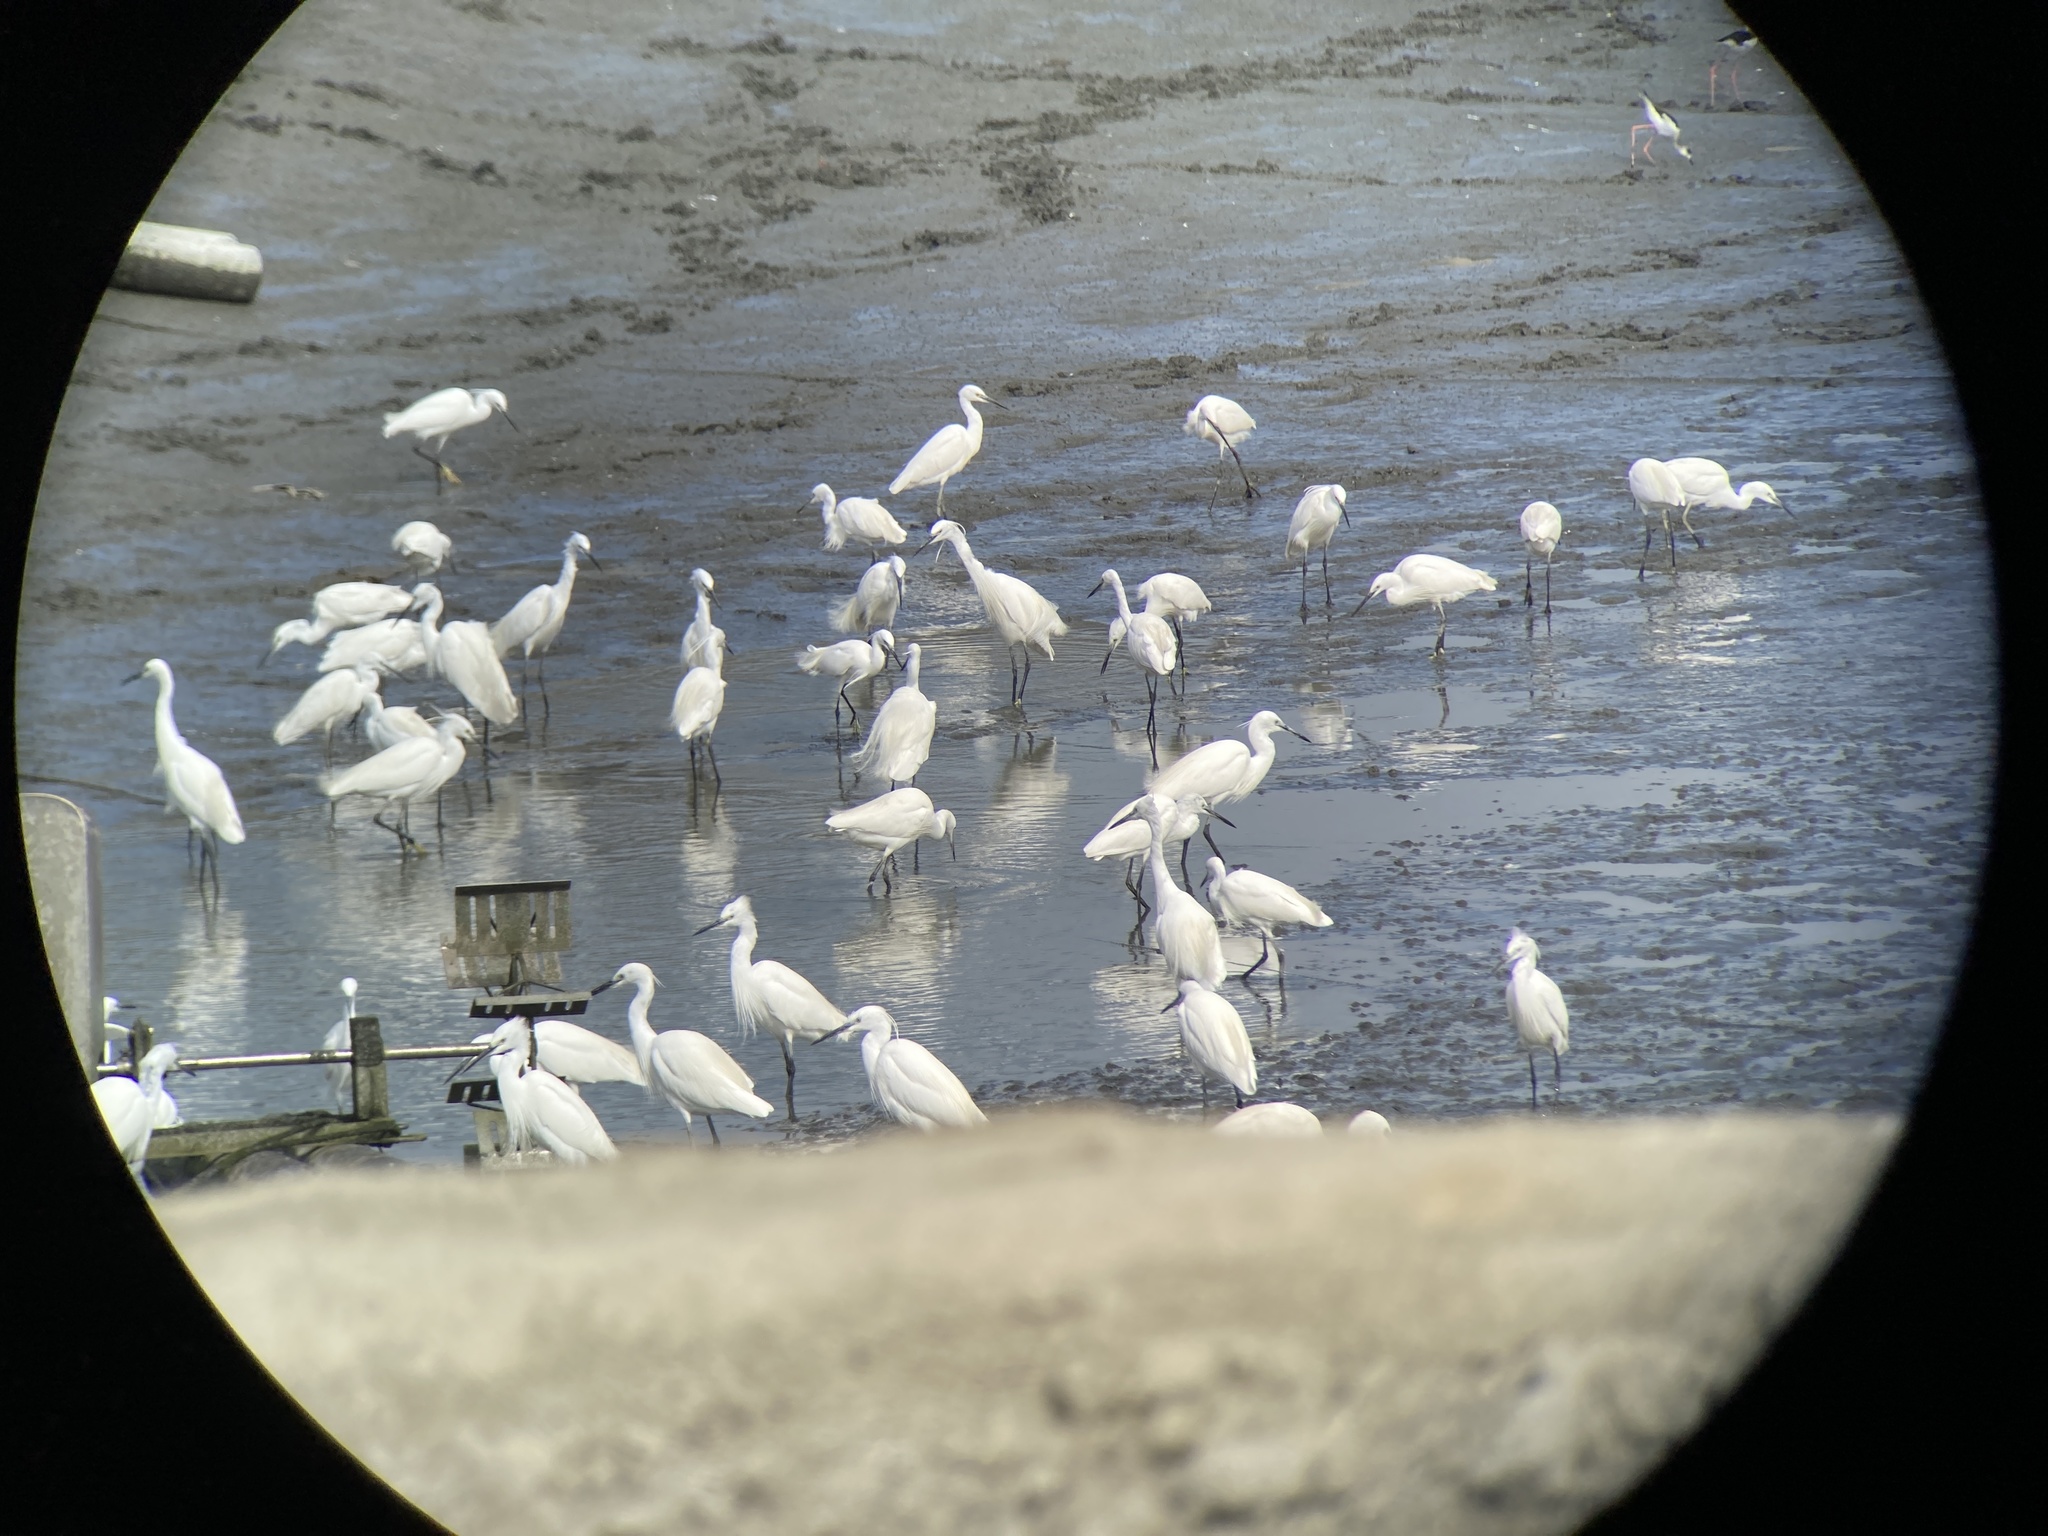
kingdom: Animalia
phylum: Chordata
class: Aves
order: Pelecaniformes
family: Ardeidae
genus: Egretta
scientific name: Egretta garzetta
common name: Little egret
